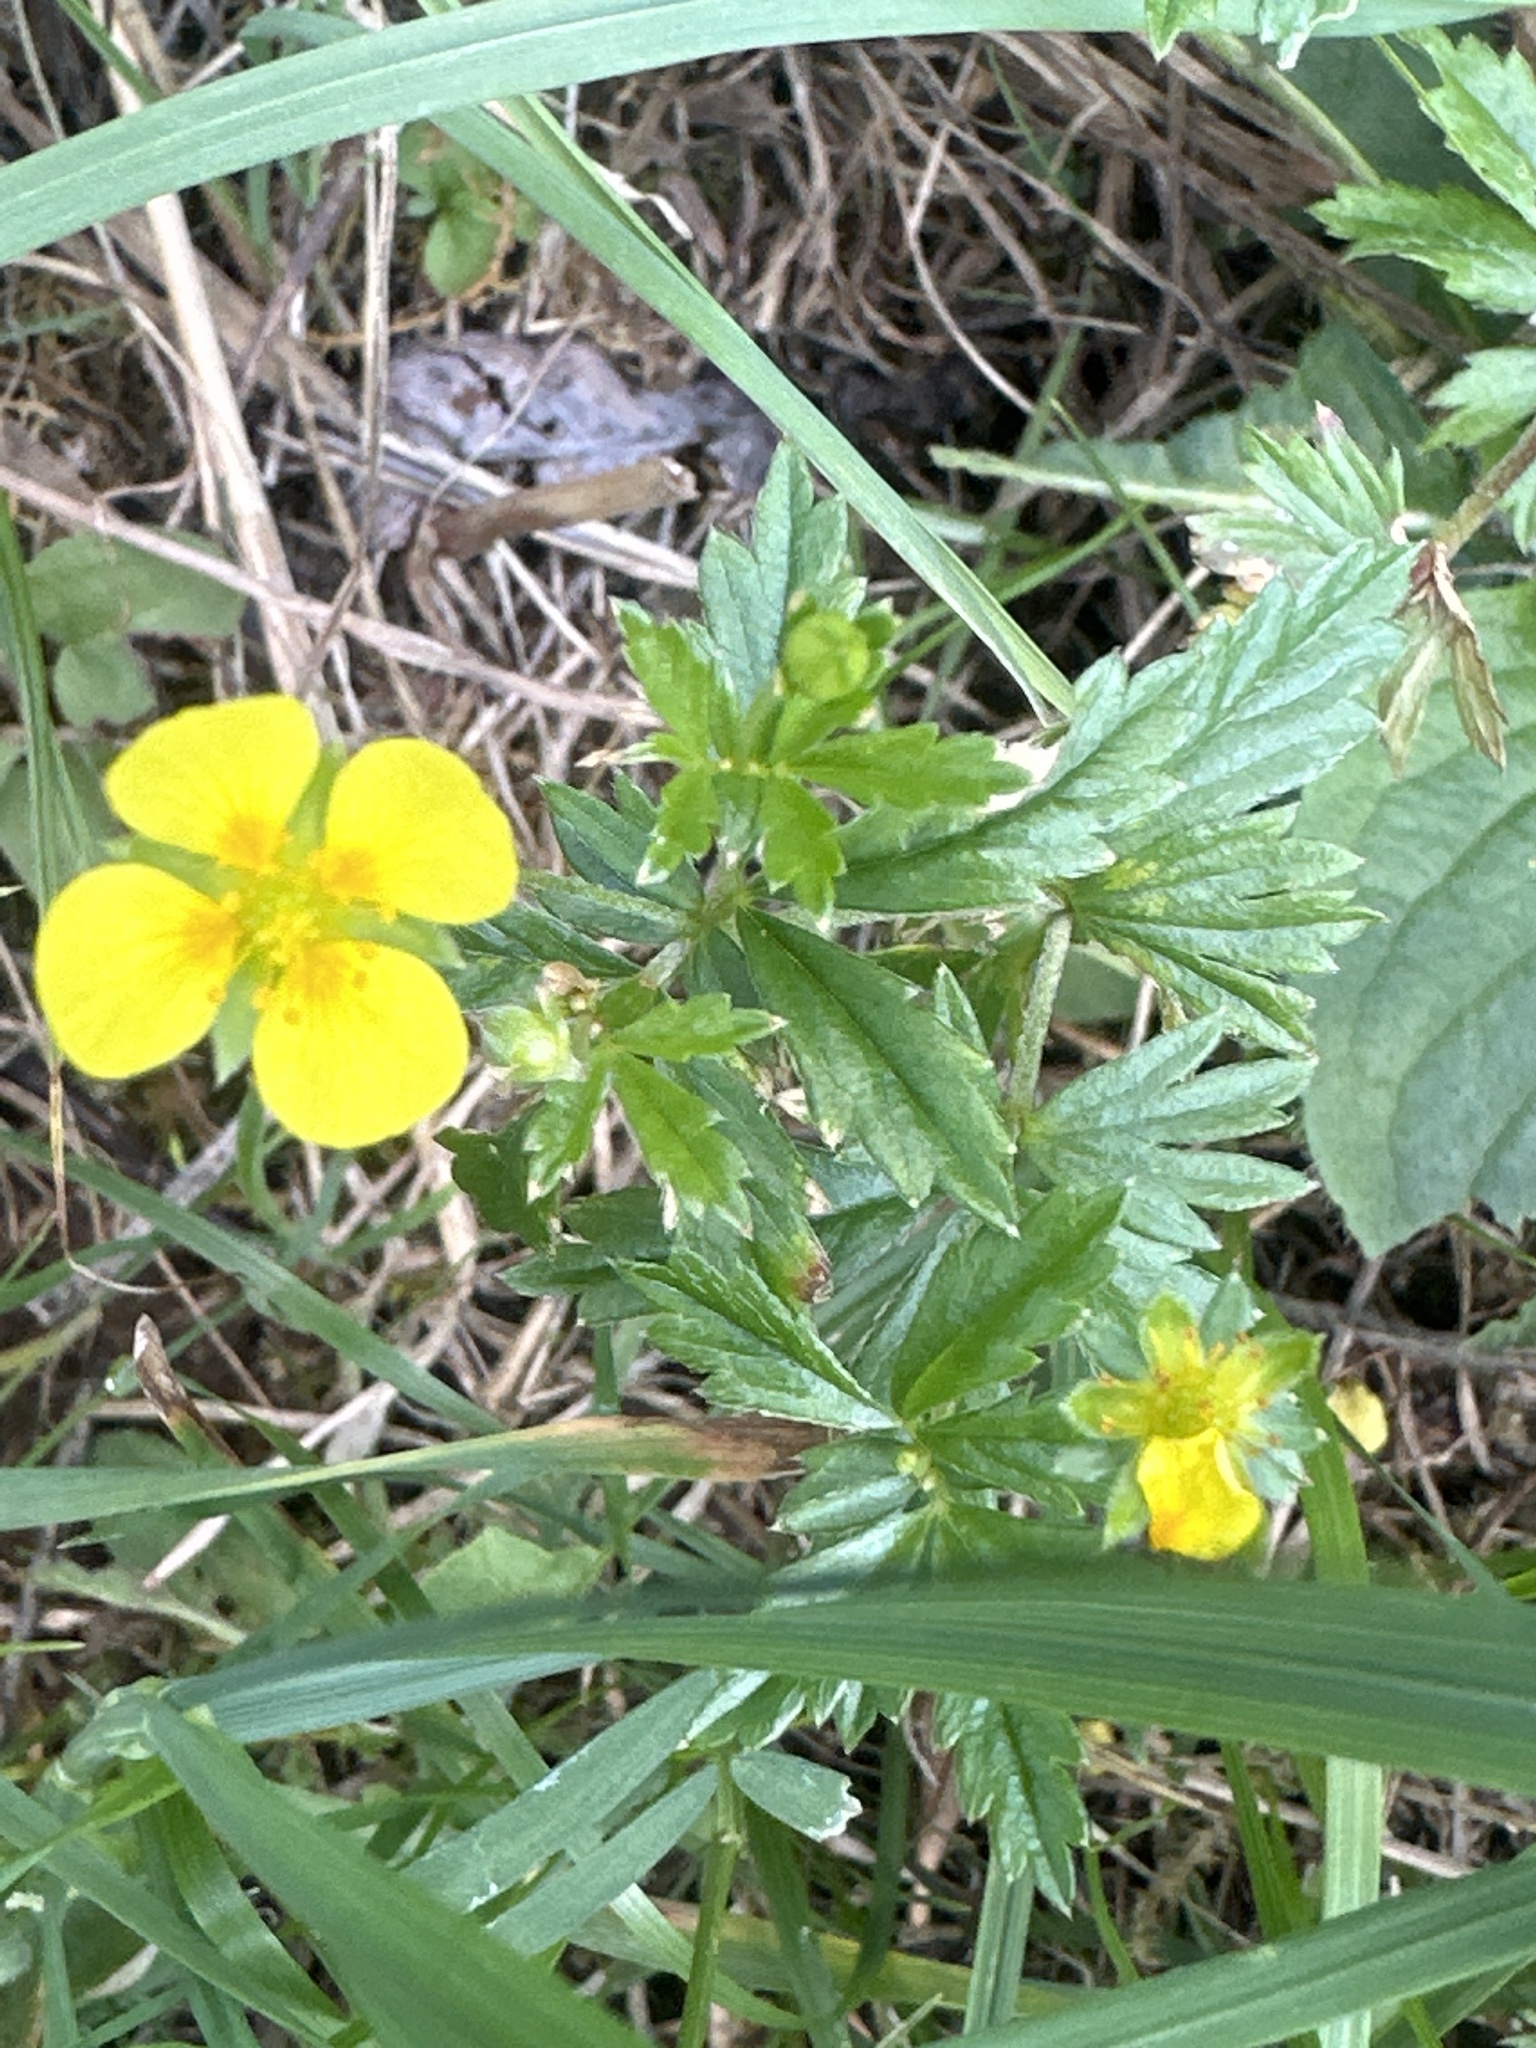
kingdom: Plantae
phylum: Tracheophyta
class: Magnoliopsida
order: Rosales
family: Rosaceae
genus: Potentilla
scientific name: Potentilla erecta
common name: Tormentil
